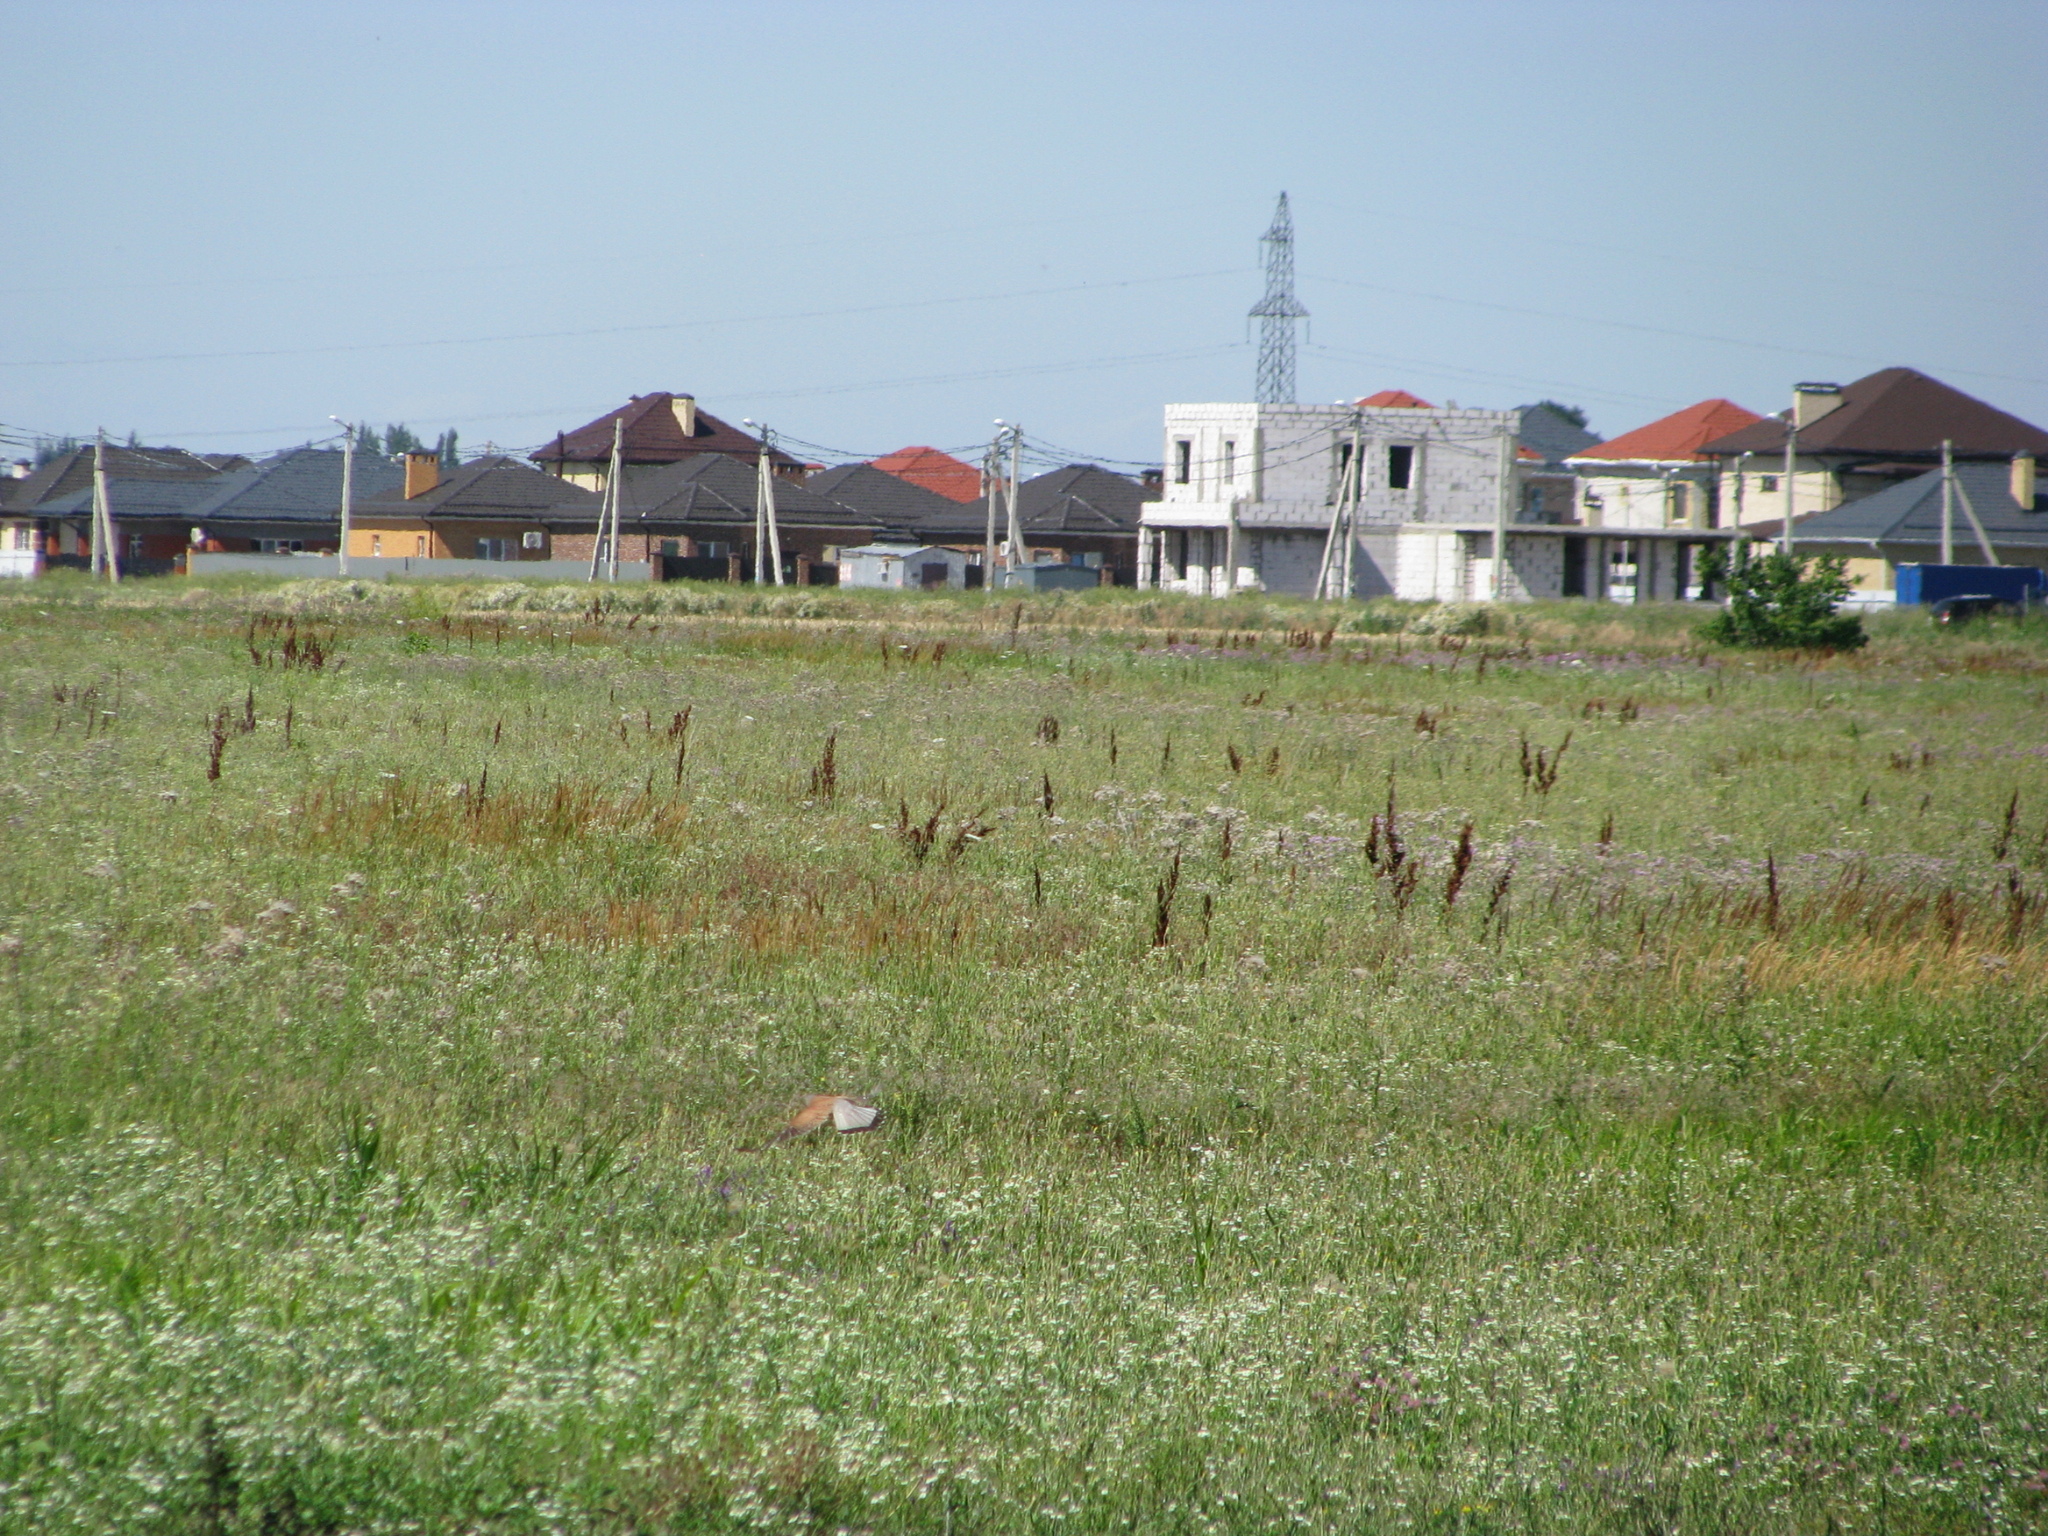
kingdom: Animalia
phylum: Chordata
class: Aves
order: Falconiformes
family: Falconidae
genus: Falco
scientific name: Falco tinnunculus
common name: Common kestrel
